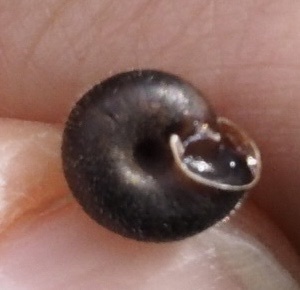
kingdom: Animalia
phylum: Mollusca
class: Gastropoda
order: Stylommatophora
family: Hygromiidae
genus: Trochulus
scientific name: Trochulus hispidus
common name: Hairy snail
